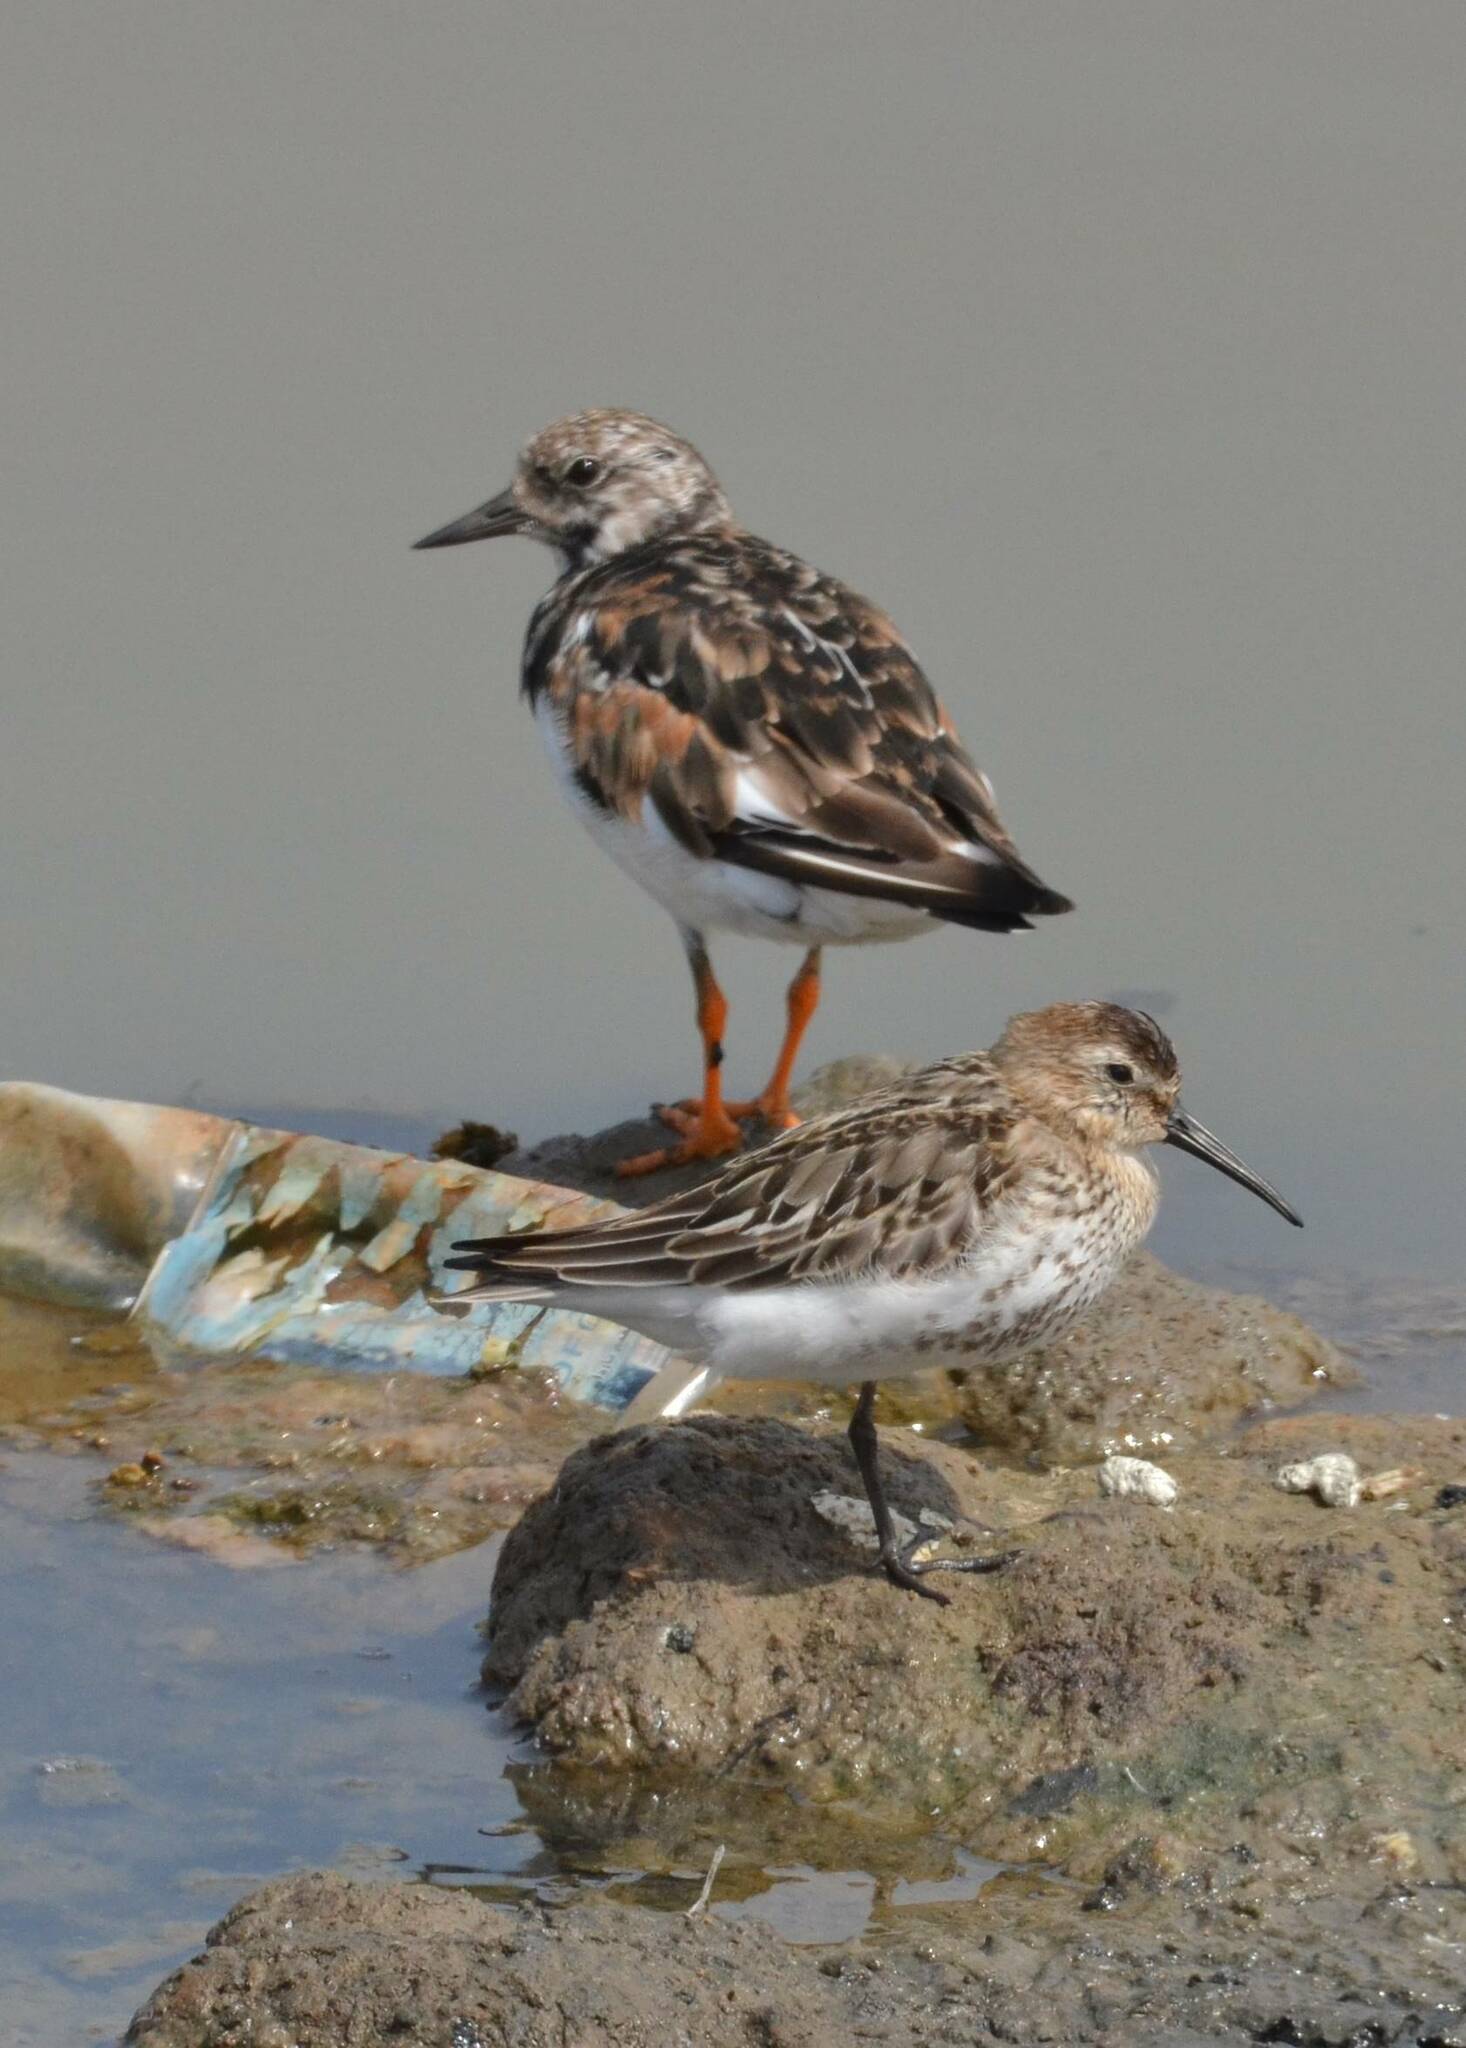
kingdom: Animalia
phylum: Chordata
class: Aves
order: Charadriiformes
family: Scolopacidae
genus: Arenaria
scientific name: Arenaria interpres
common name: Ruddy turnstone
